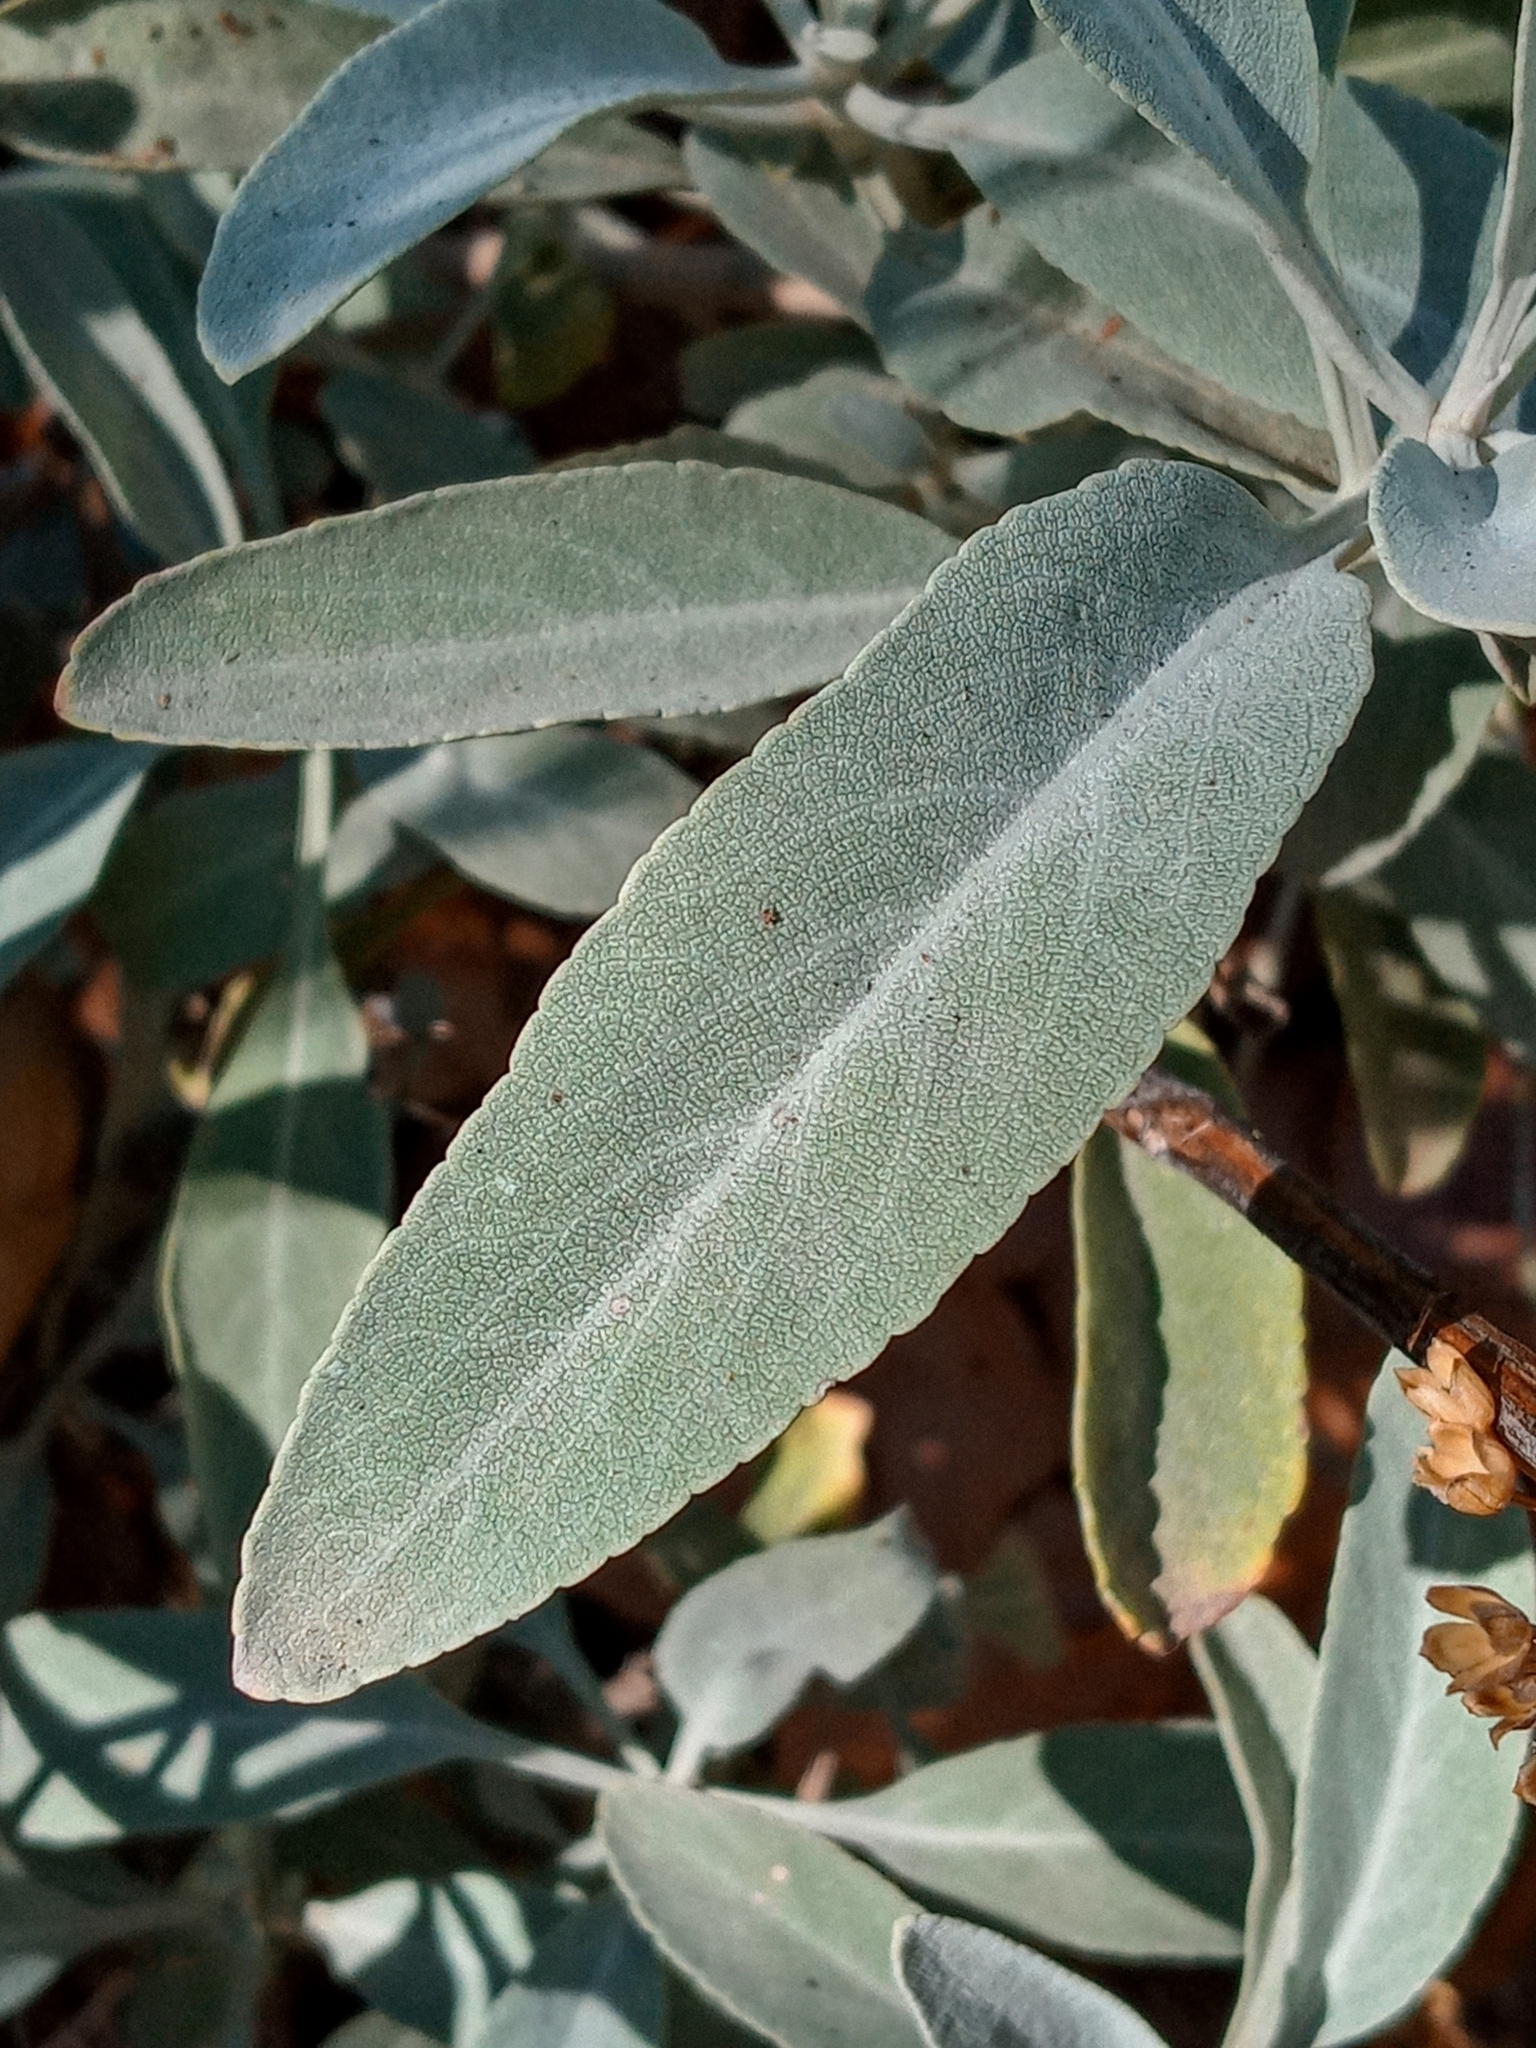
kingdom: Plantae
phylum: Tracheophyta
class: Magnoliopsida
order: Lamiales
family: Lamiaceae
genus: Salvia
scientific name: Salvia apiana
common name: White sage
